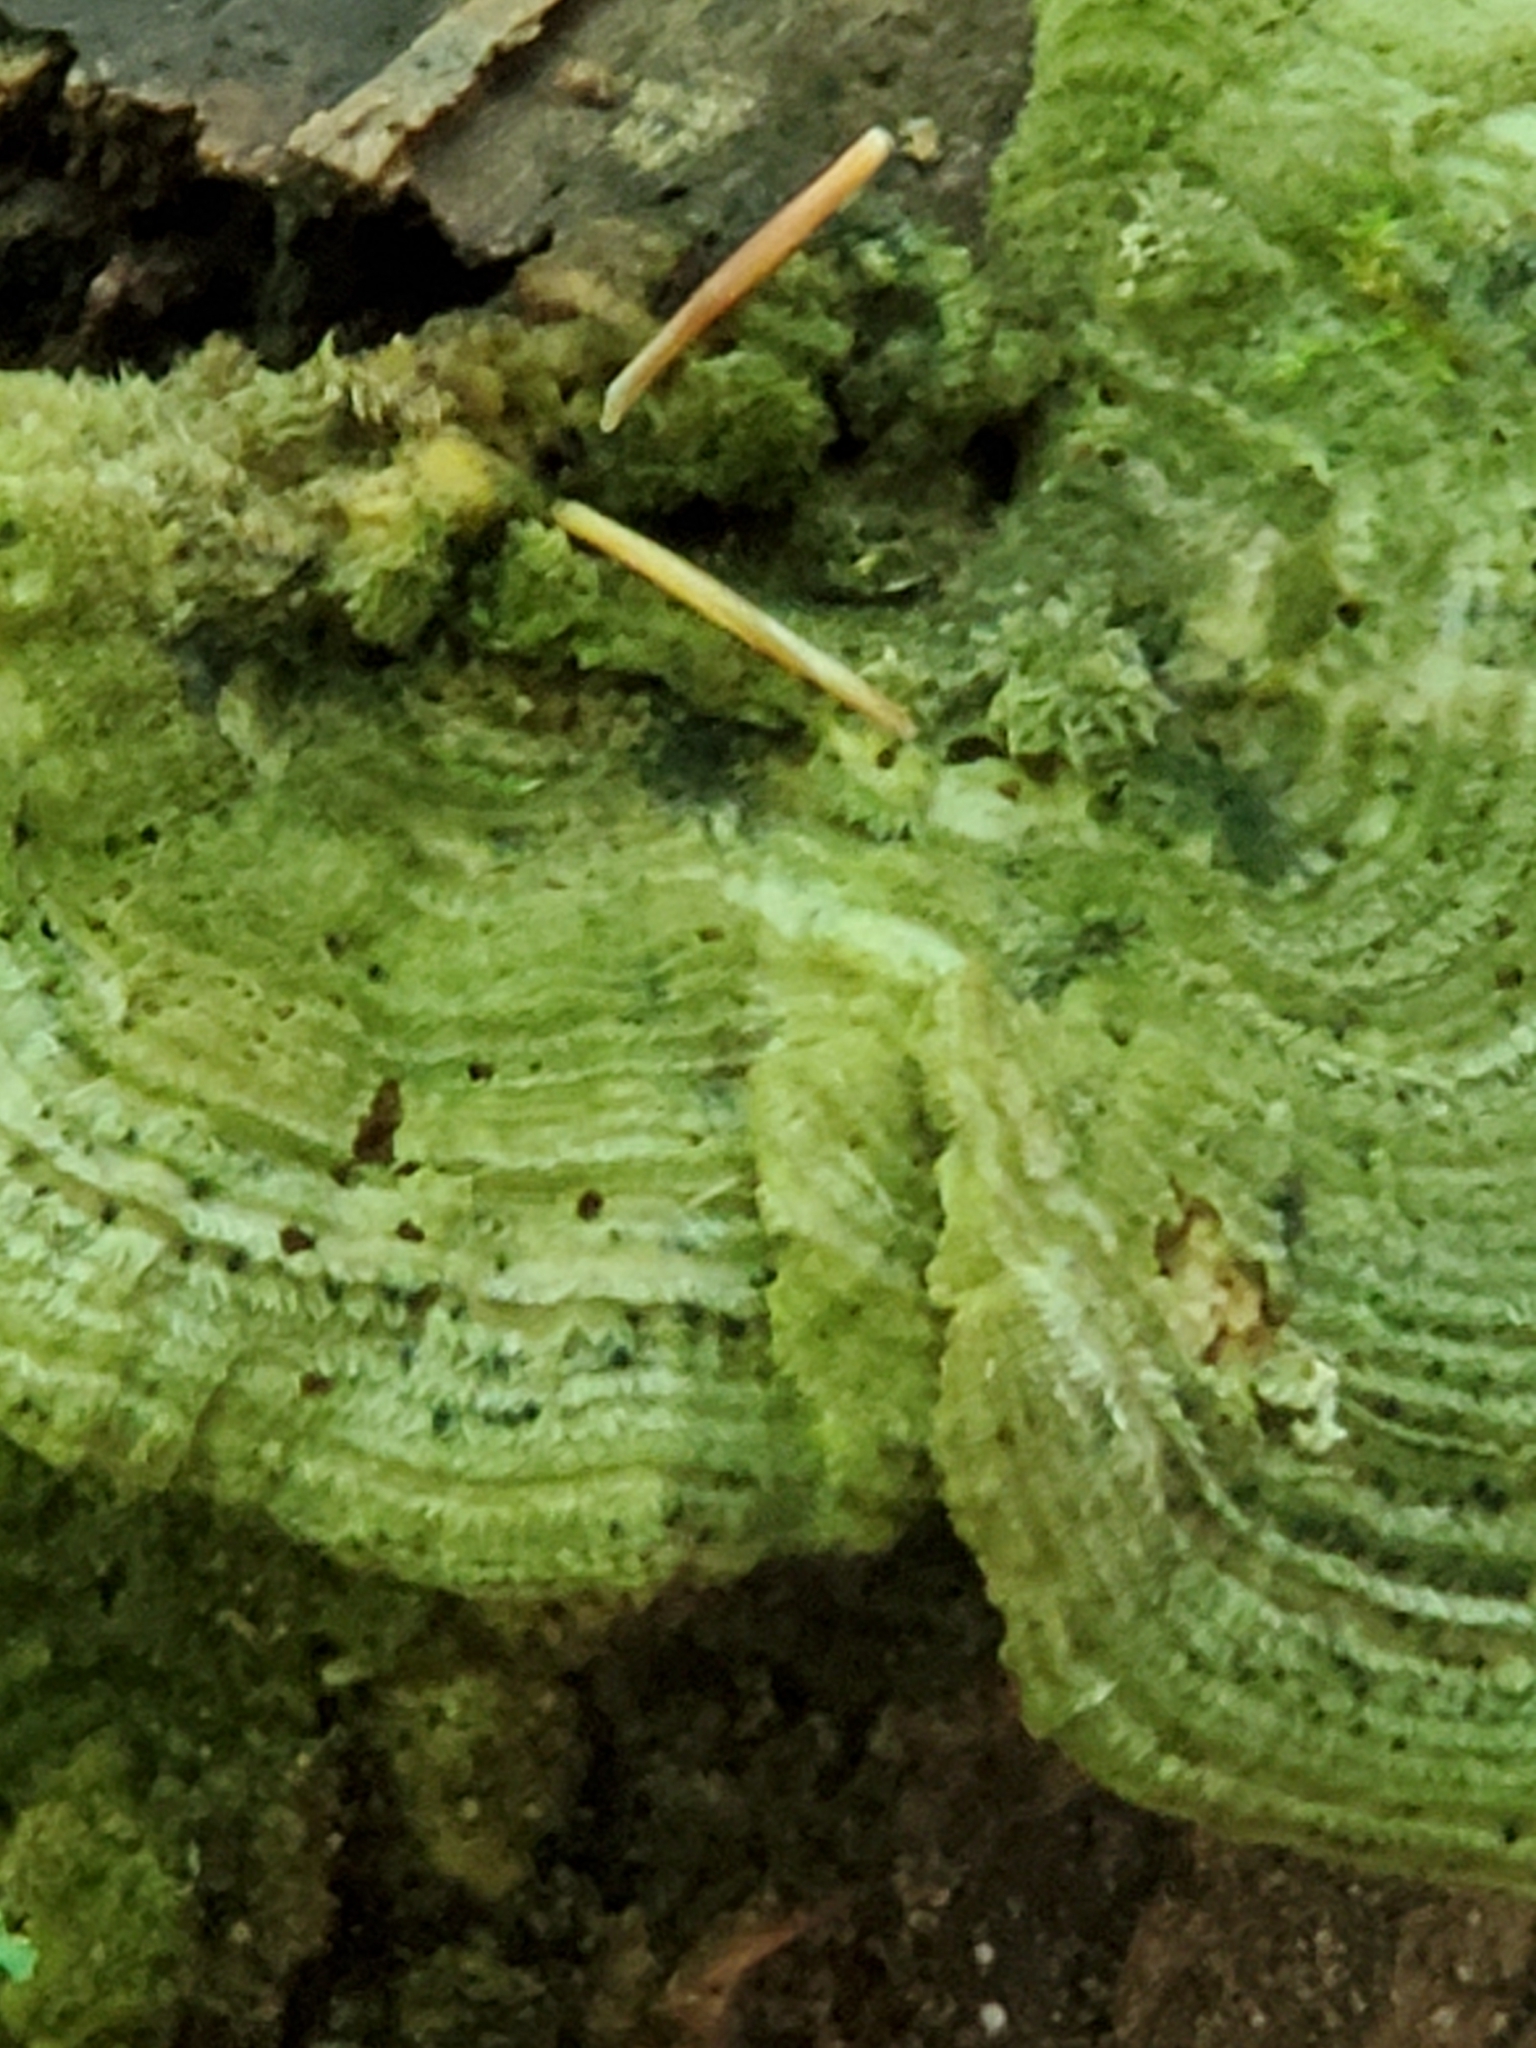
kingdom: Fungi
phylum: Basidiomycota
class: Agaricomycetes
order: Polyporales
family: Polyporaceae
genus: Lenzites
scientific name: Lenzites betulinus
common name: Birch mazegill
